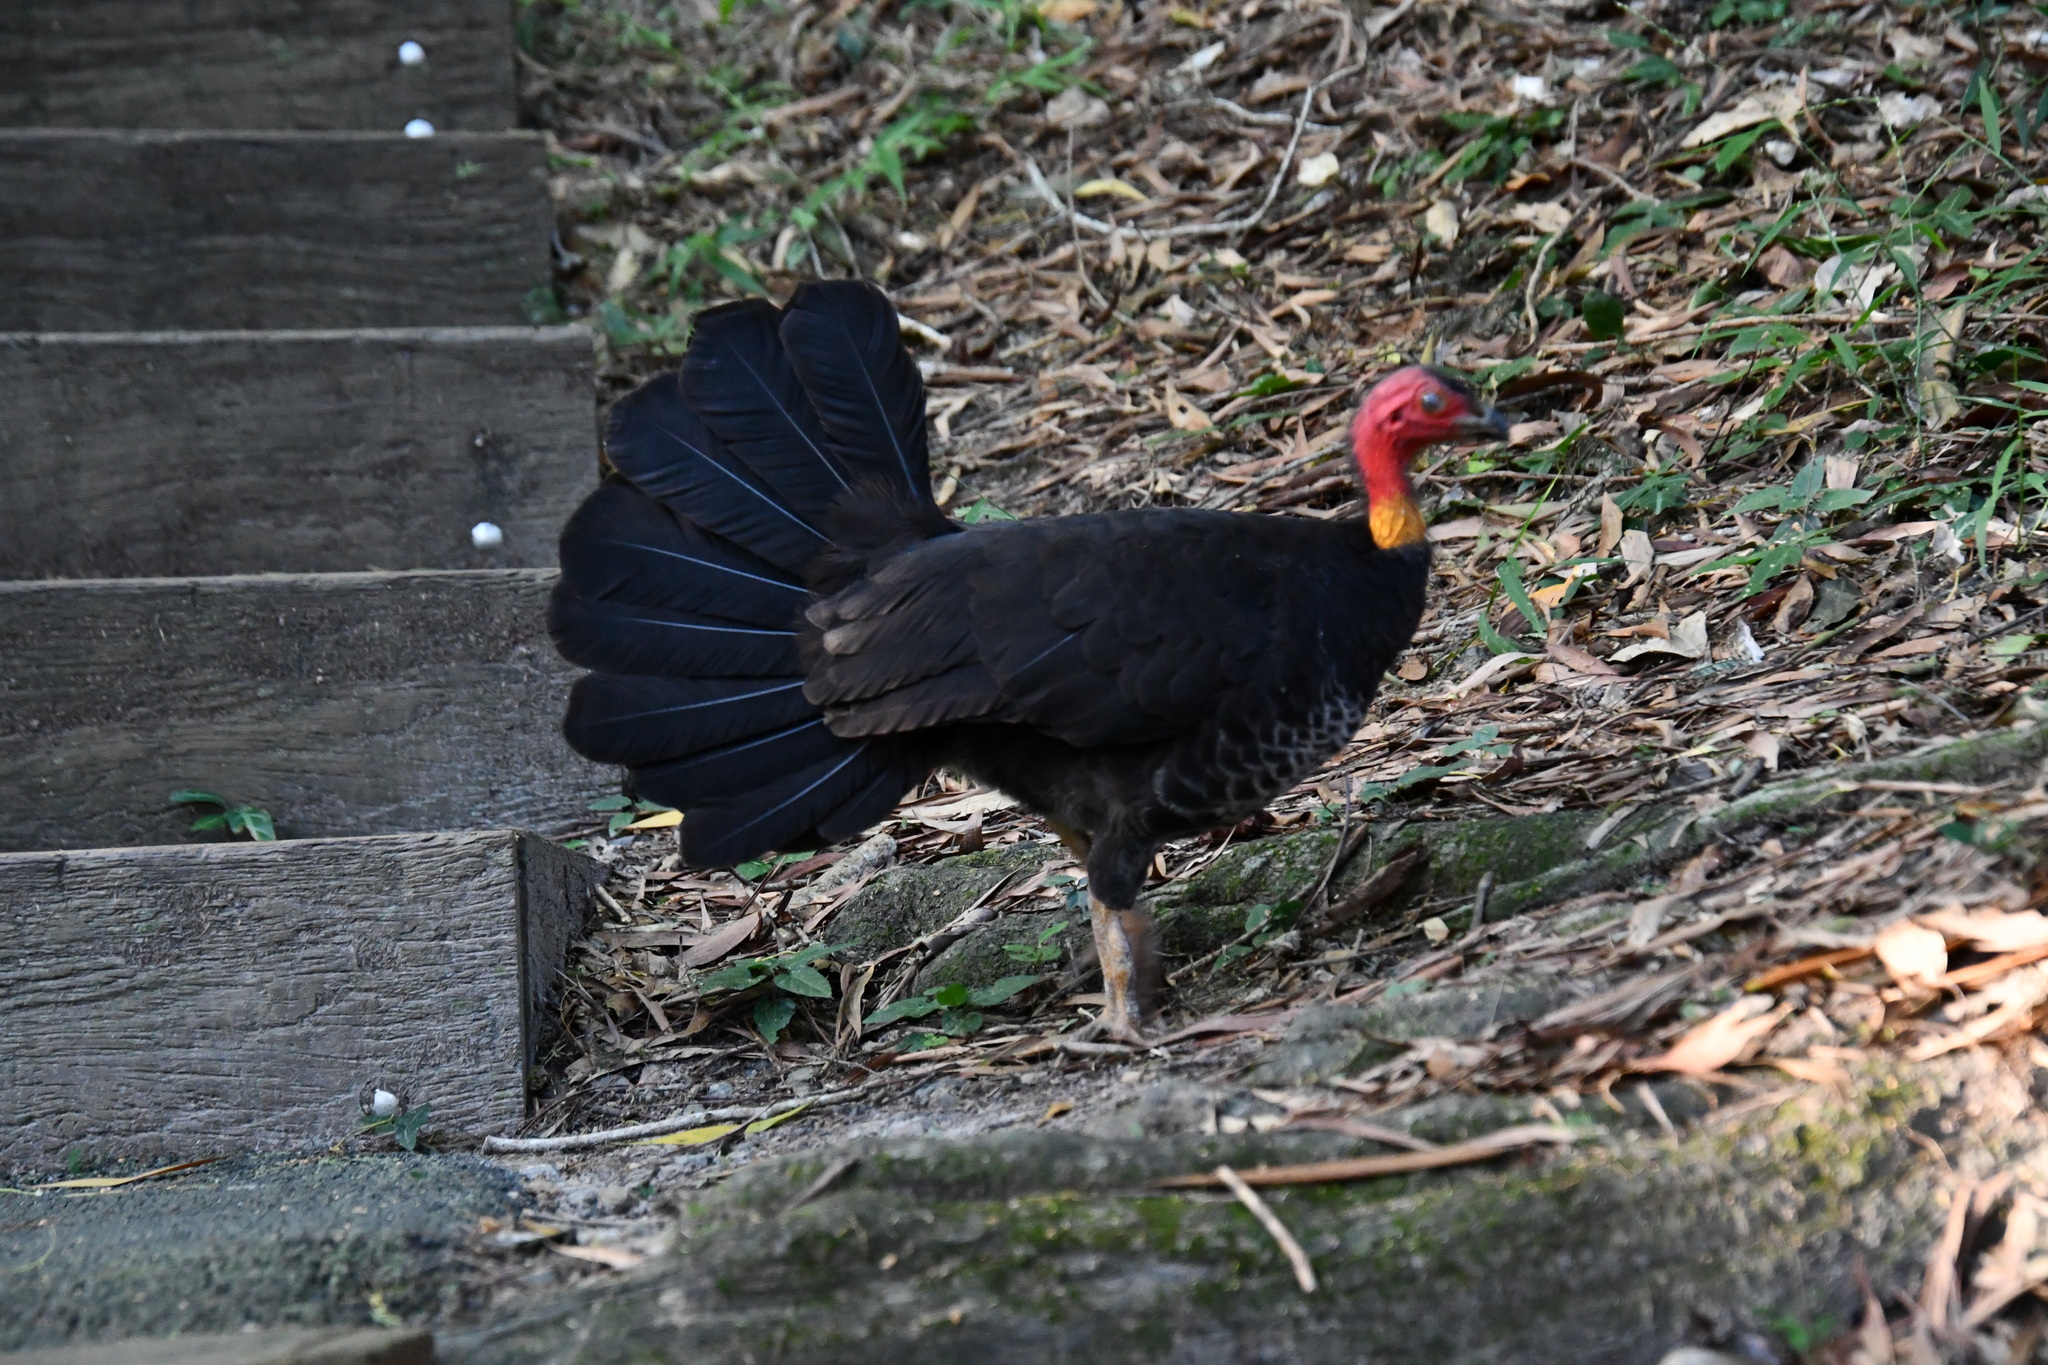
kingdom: Animalia
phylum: Chordata
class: Aves
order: Galliformes
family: Megapodiidae
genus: Alectura
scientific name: Alectura lathami
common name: Australian brushturkey
